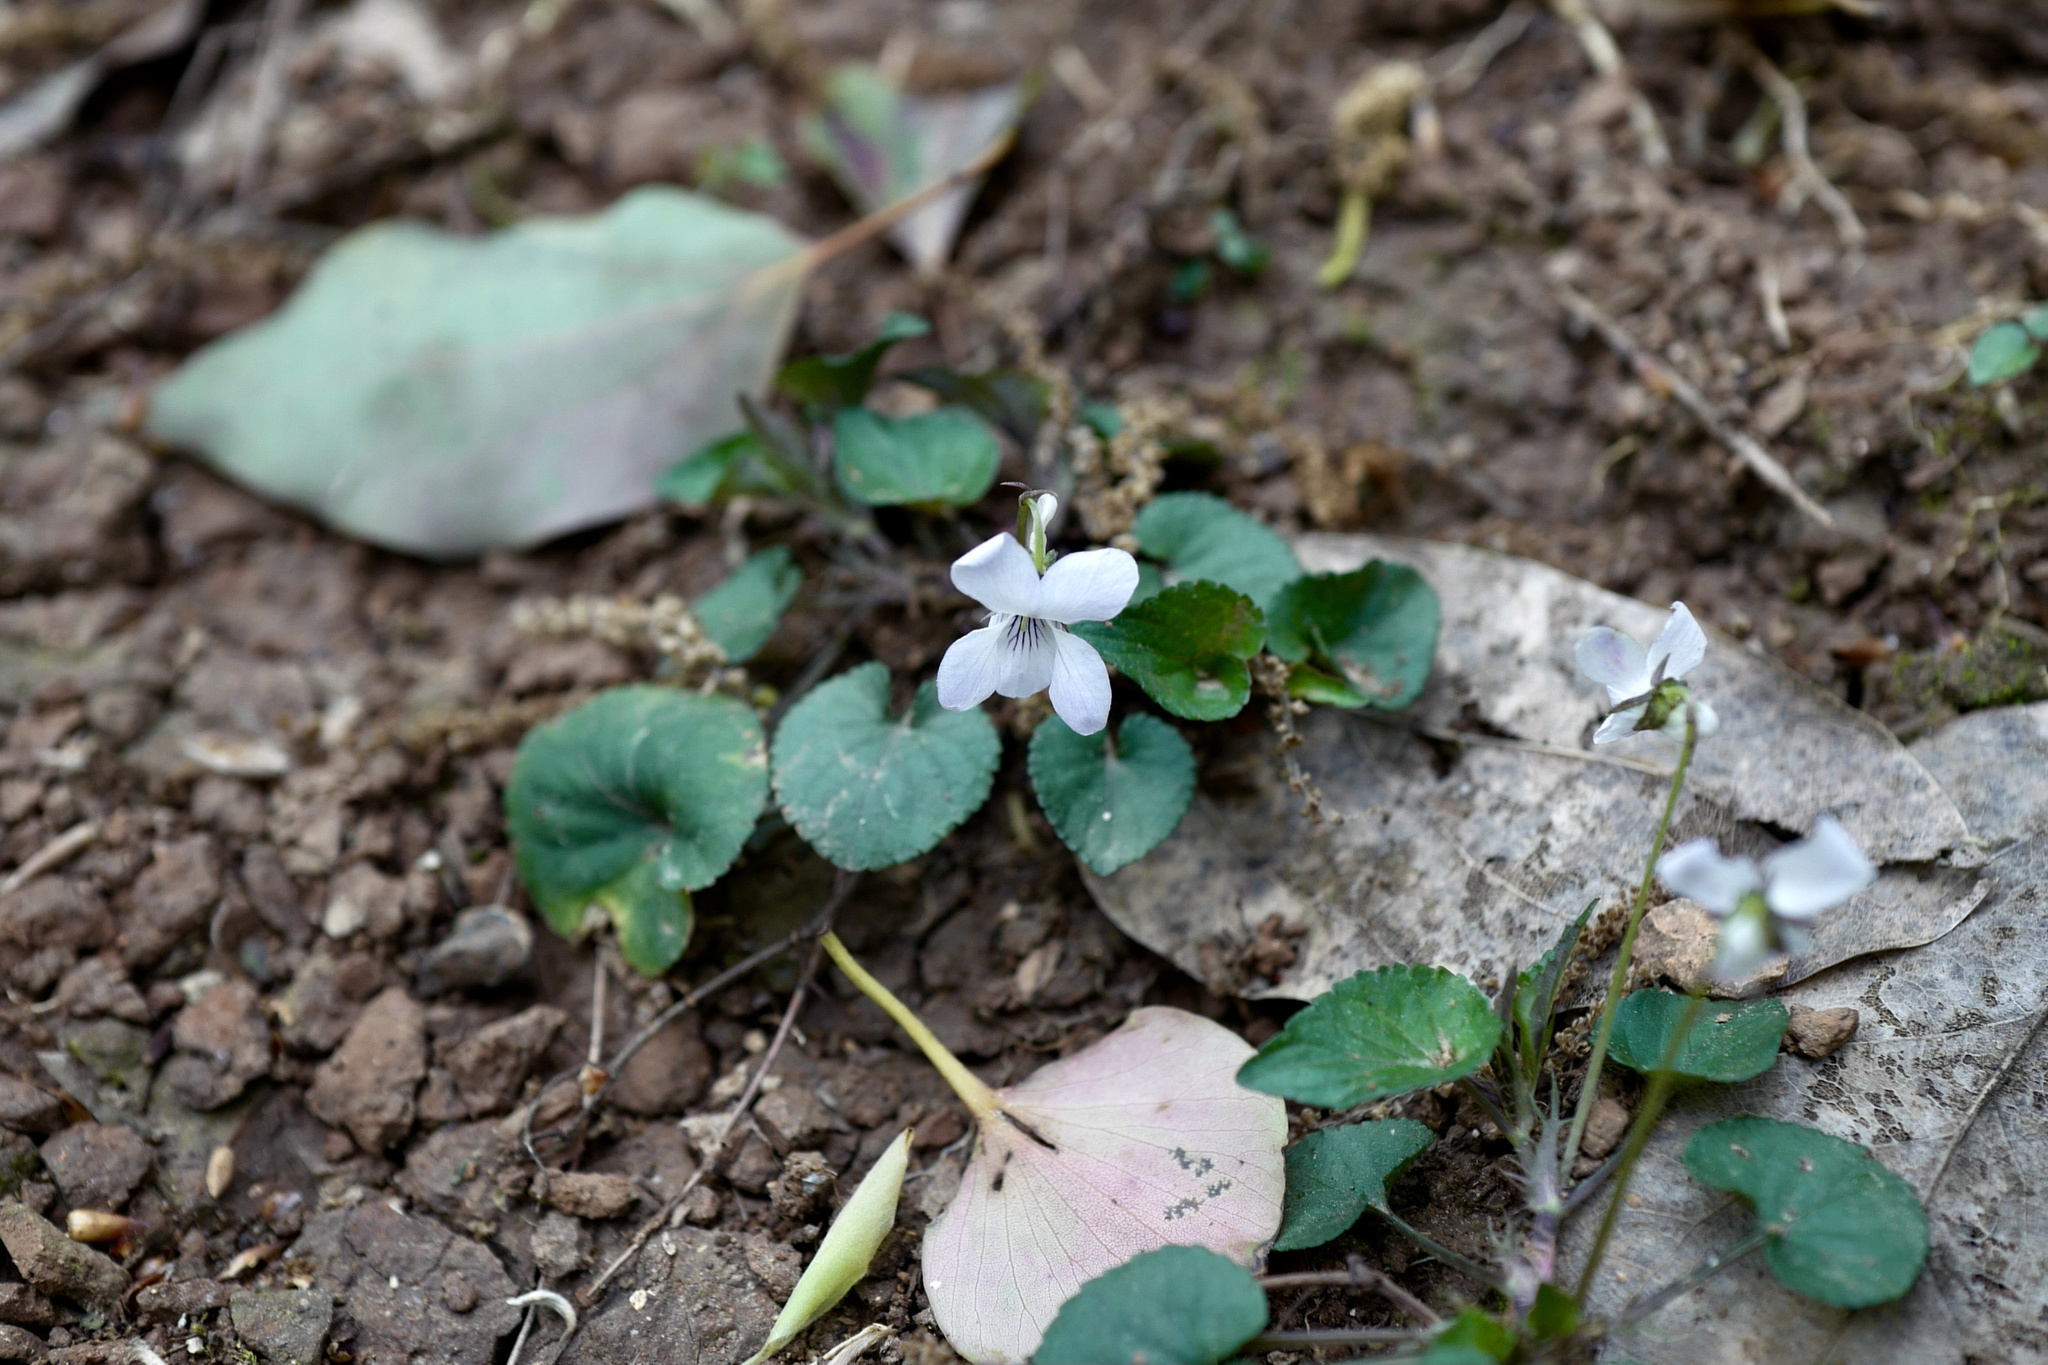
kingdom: Plantae
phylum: Tracheophyta
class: Magnoliopsida
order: Malpighiales
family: Violaceae
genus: Viola
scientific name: Viola grypoceras
